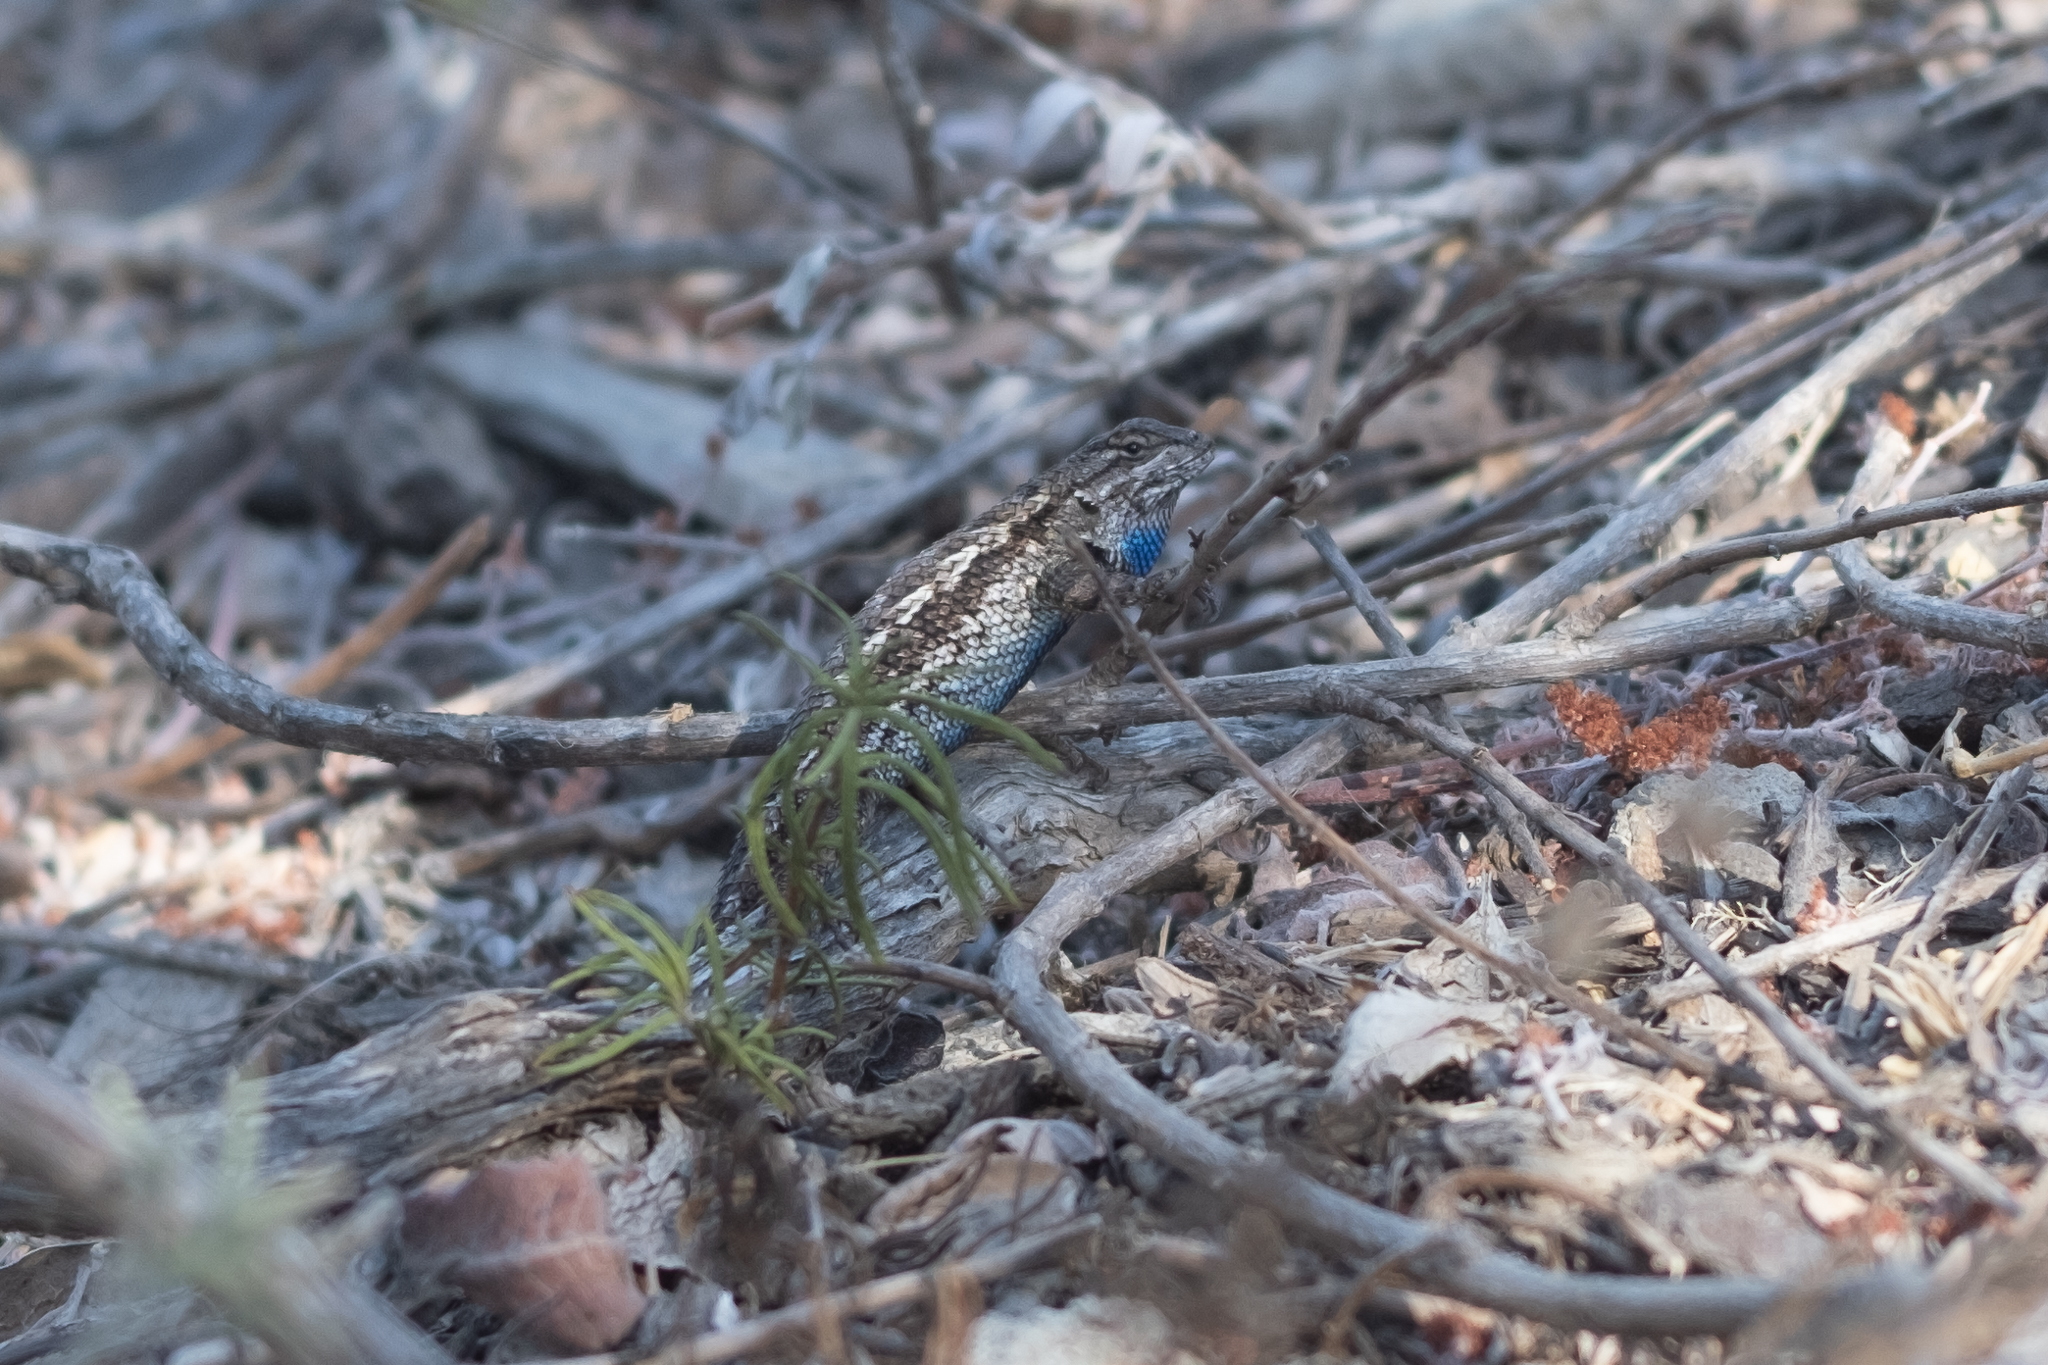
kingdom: Animalia
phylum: Chordata
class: Squamata
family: Phrynosomatidae
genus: Sceloporus
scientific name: Sceloporus occidentalis
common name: Western fence lizard
